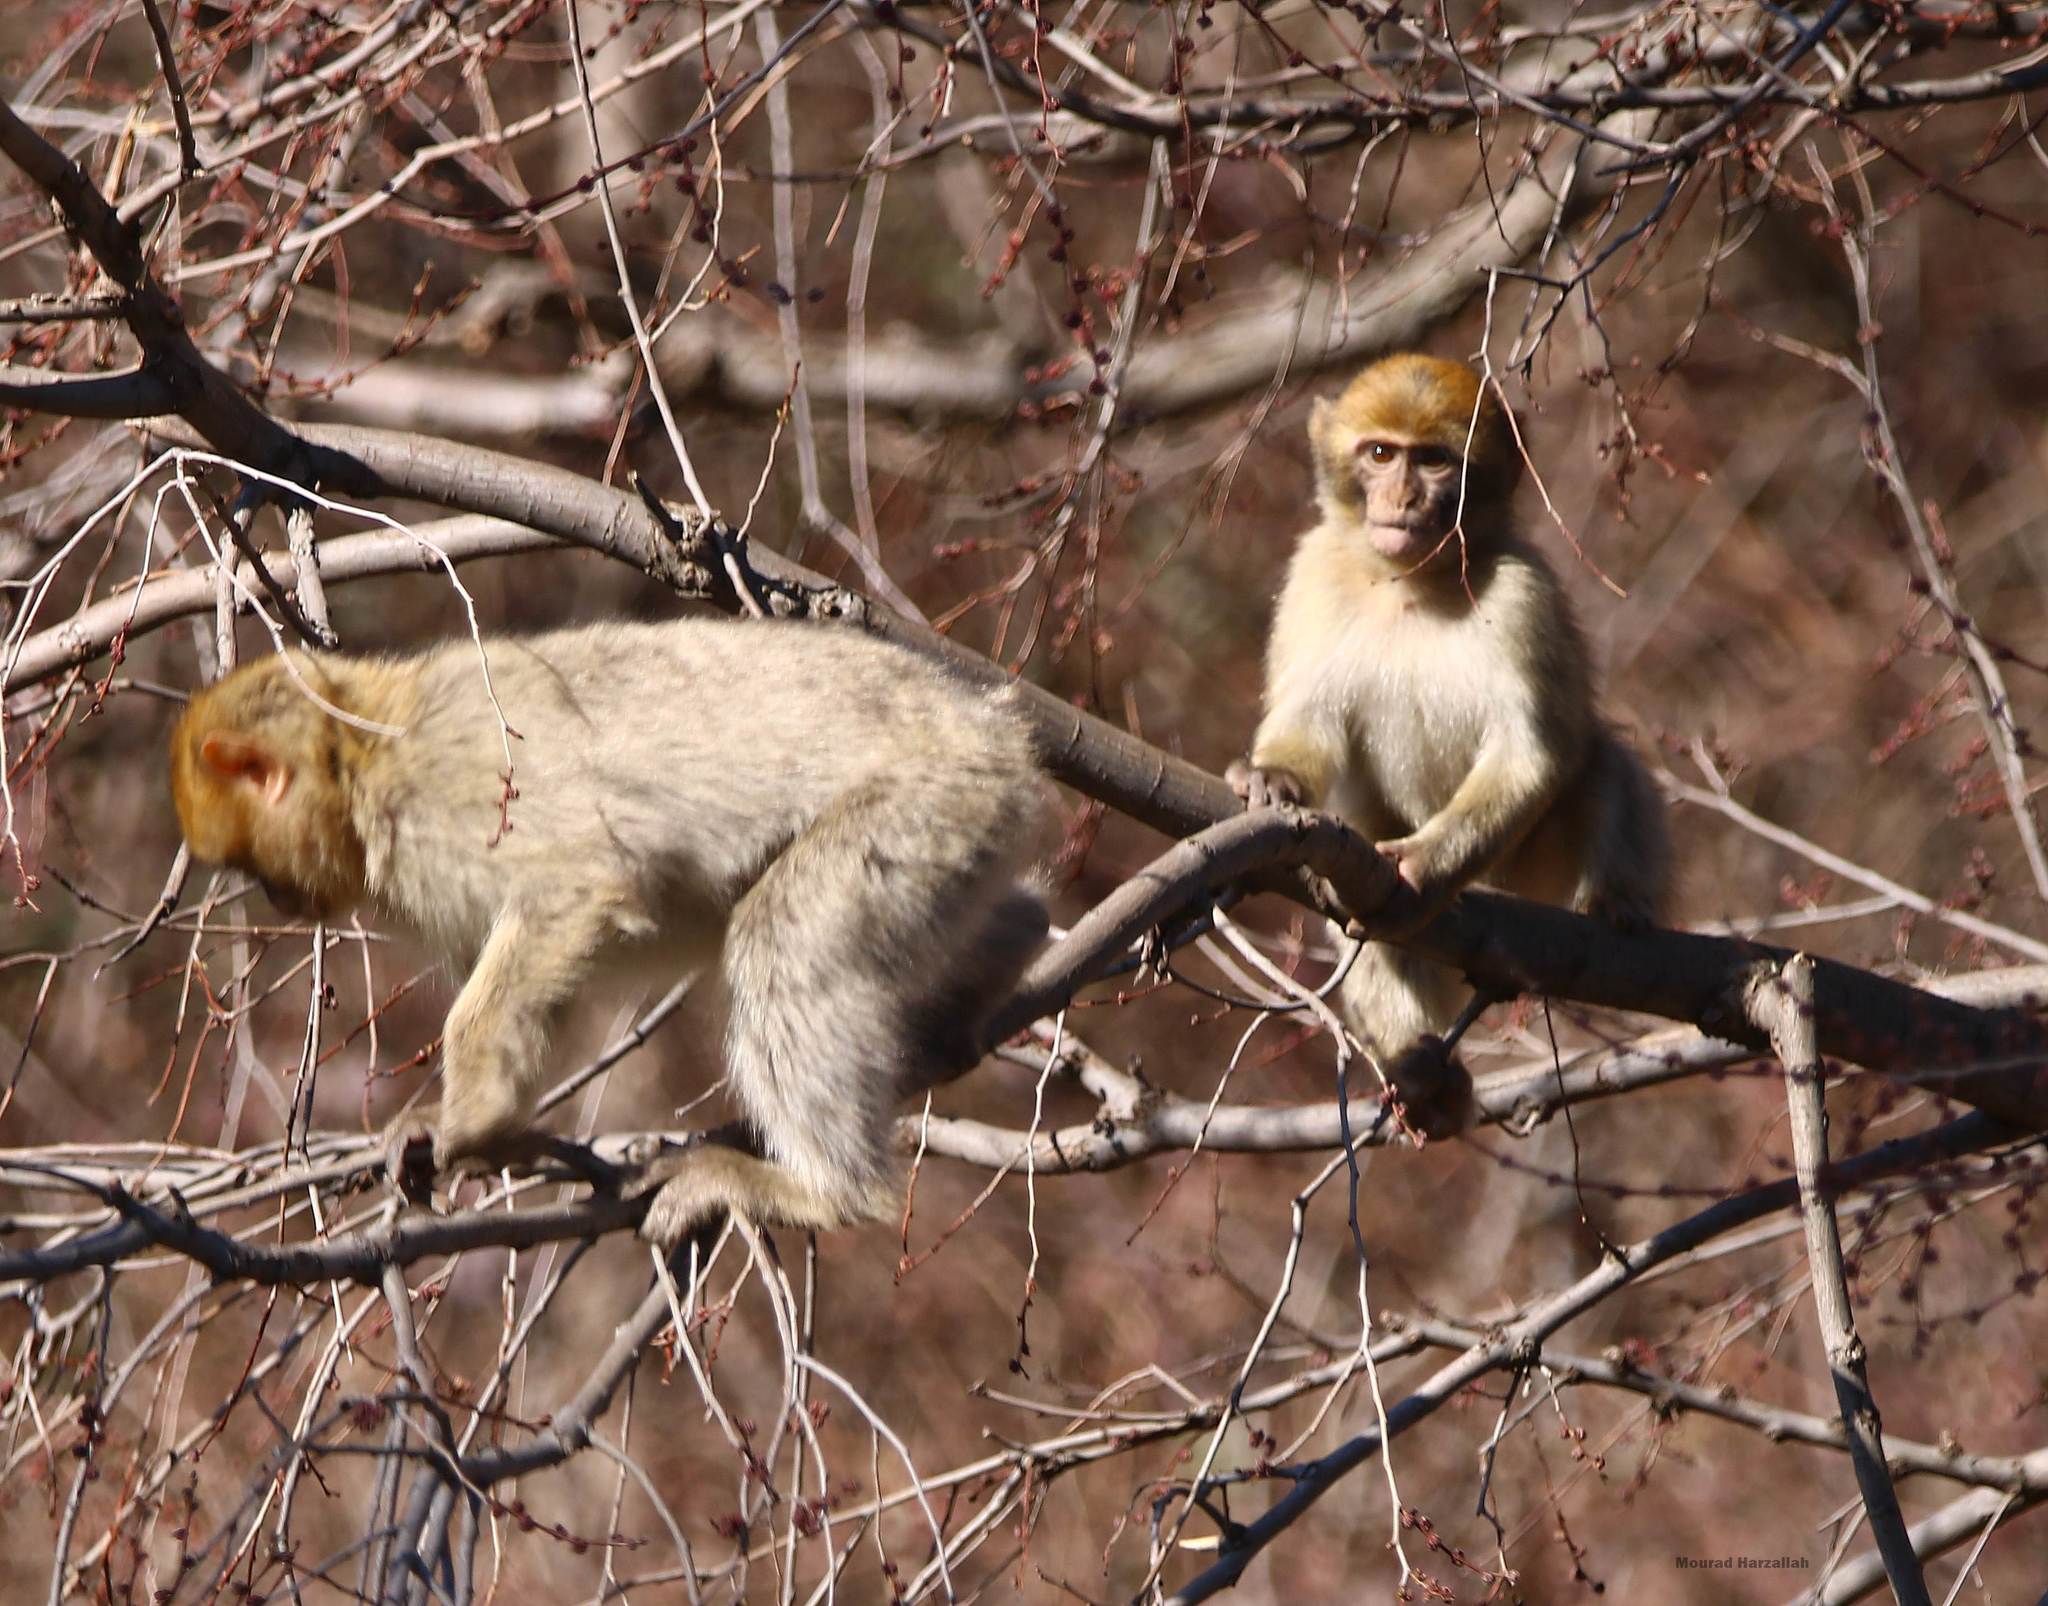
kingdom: Animalia
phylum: Chordata
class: Mammalia
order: Primates
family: Cercopithecidae
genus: Macaca
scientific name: Macaca sylvanus
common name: Barbary macaque
